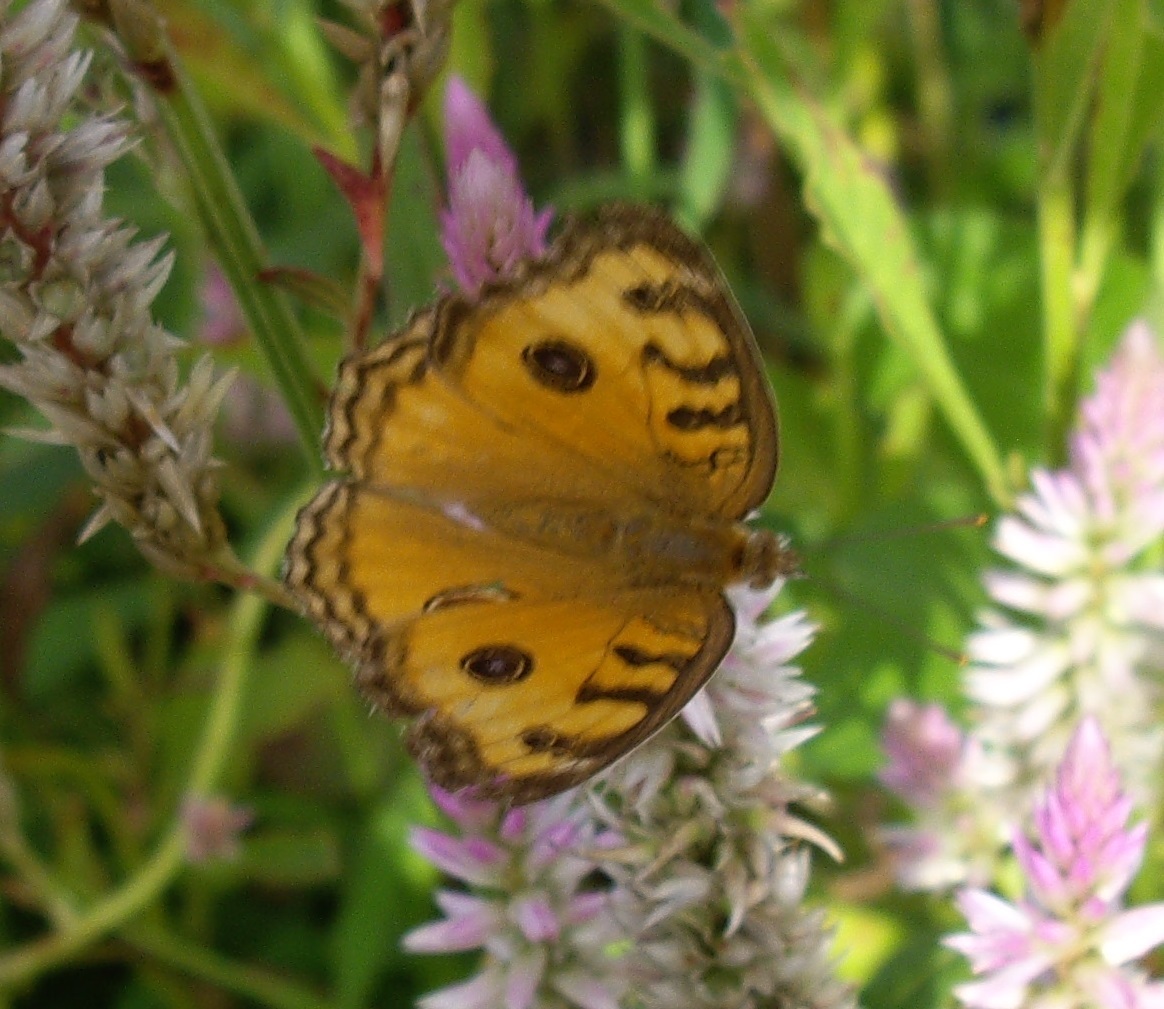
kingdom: Animalia
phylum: Arthropoda
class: Insecta
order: Lepidoptera
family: Nymphalidae
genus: Junonia
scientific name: Junonia almana
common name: Peacock pansy
